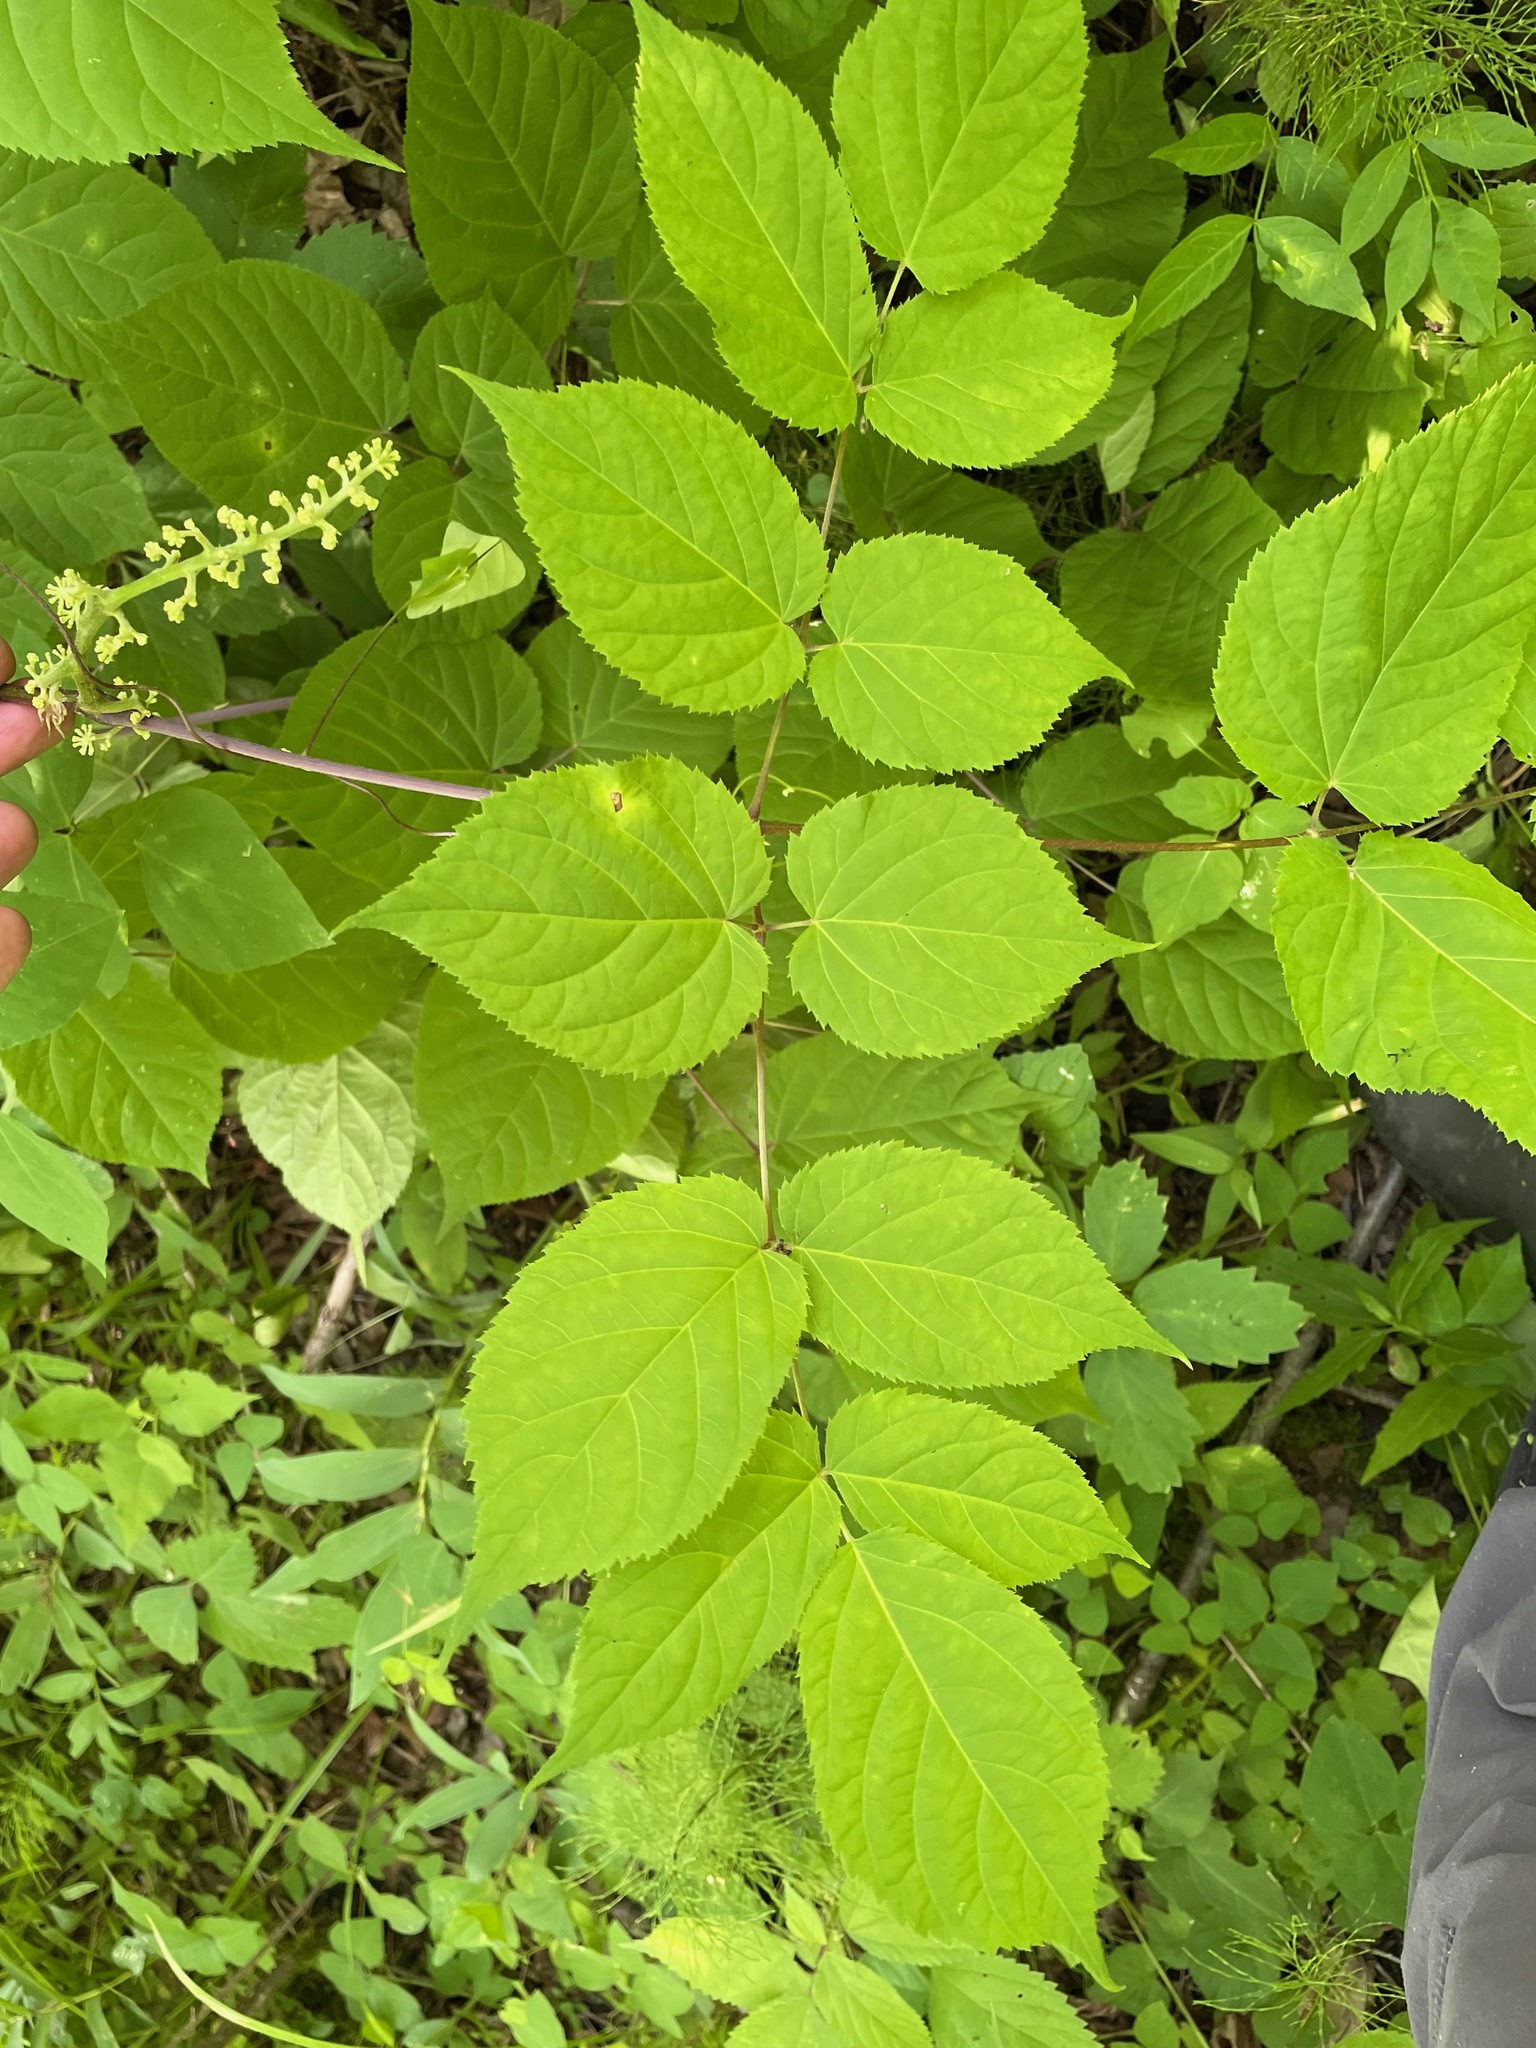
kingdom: Plantae
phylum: Tracheophyta
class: Magnoliopsida
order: Apiales
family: Araliaceae
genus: Aralia
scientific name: Aralia racemosa
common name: American-spikenard
